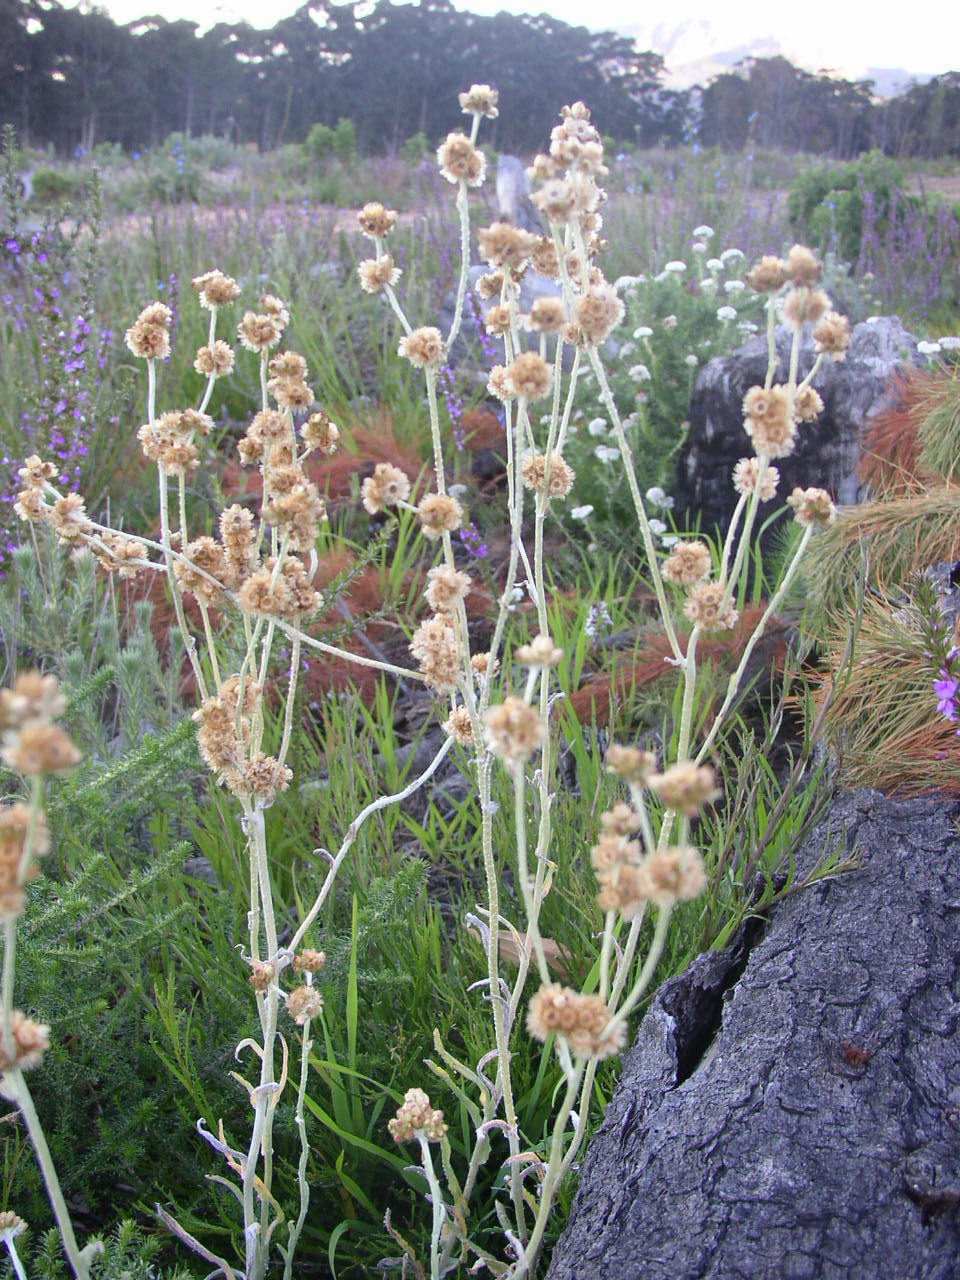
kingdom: Plantae
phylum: Tracheophyta
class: Magnoliopsida
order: Asterales
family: Asteraceae
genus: Pseudognaphalium
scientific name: Pseudognaphalium undulatum
